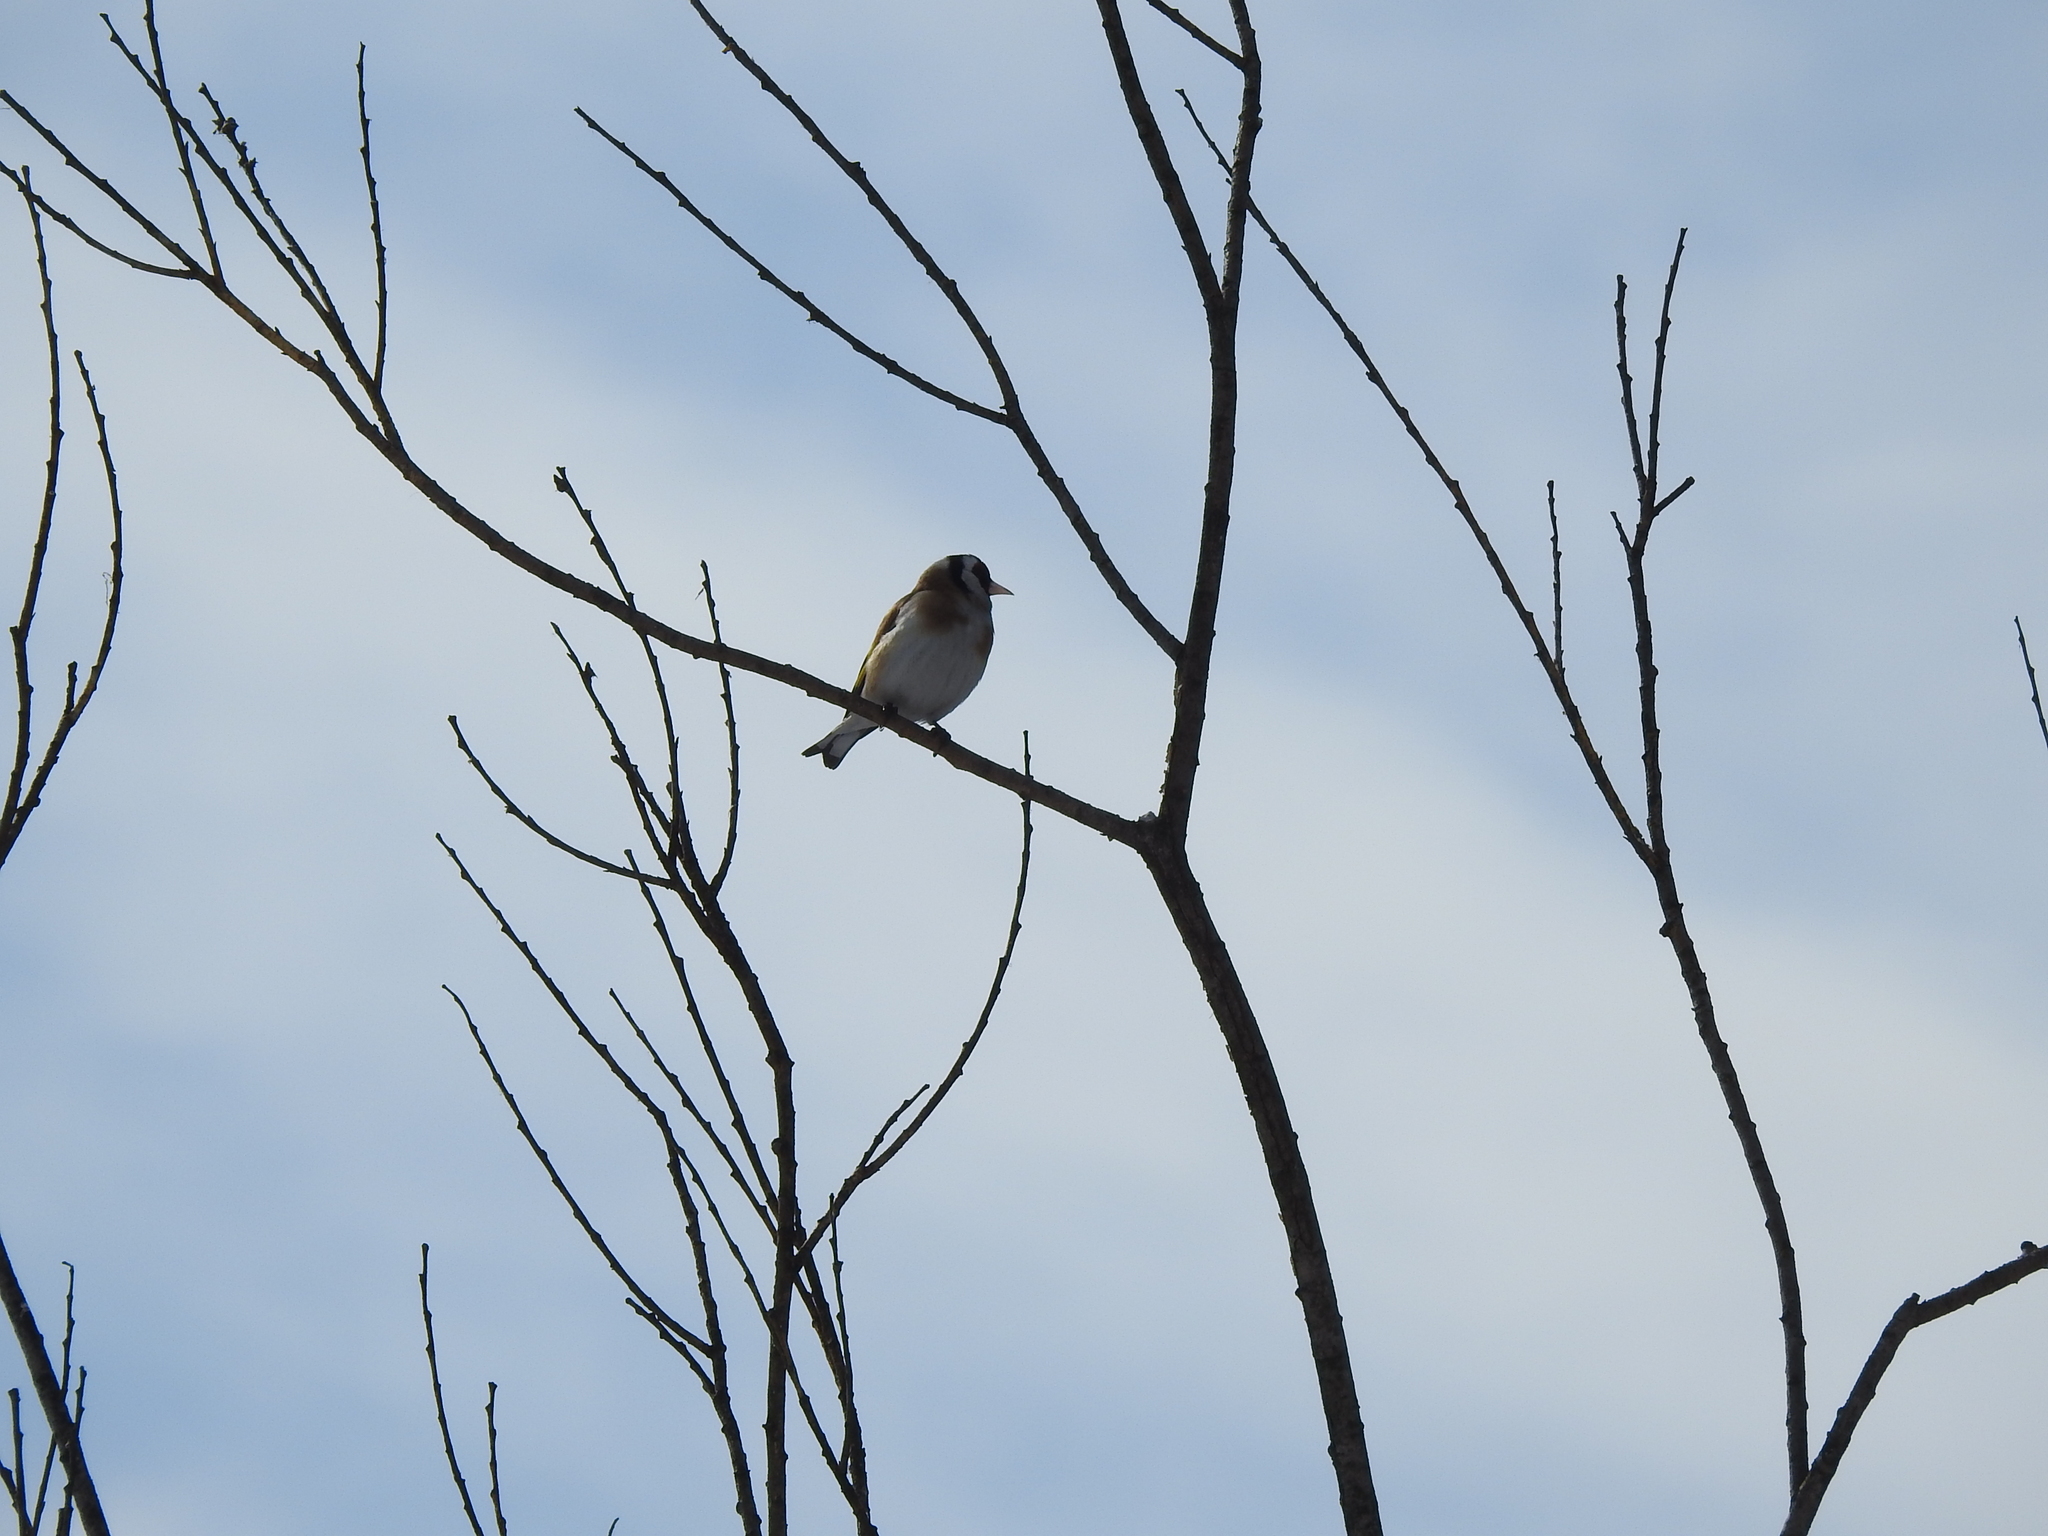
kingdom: Animalia
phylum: Chordata
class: Aves
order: Passeriformes
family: Fringillidae
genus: Carduelis
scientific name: Carduelis carduelis
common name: European goldfinch
